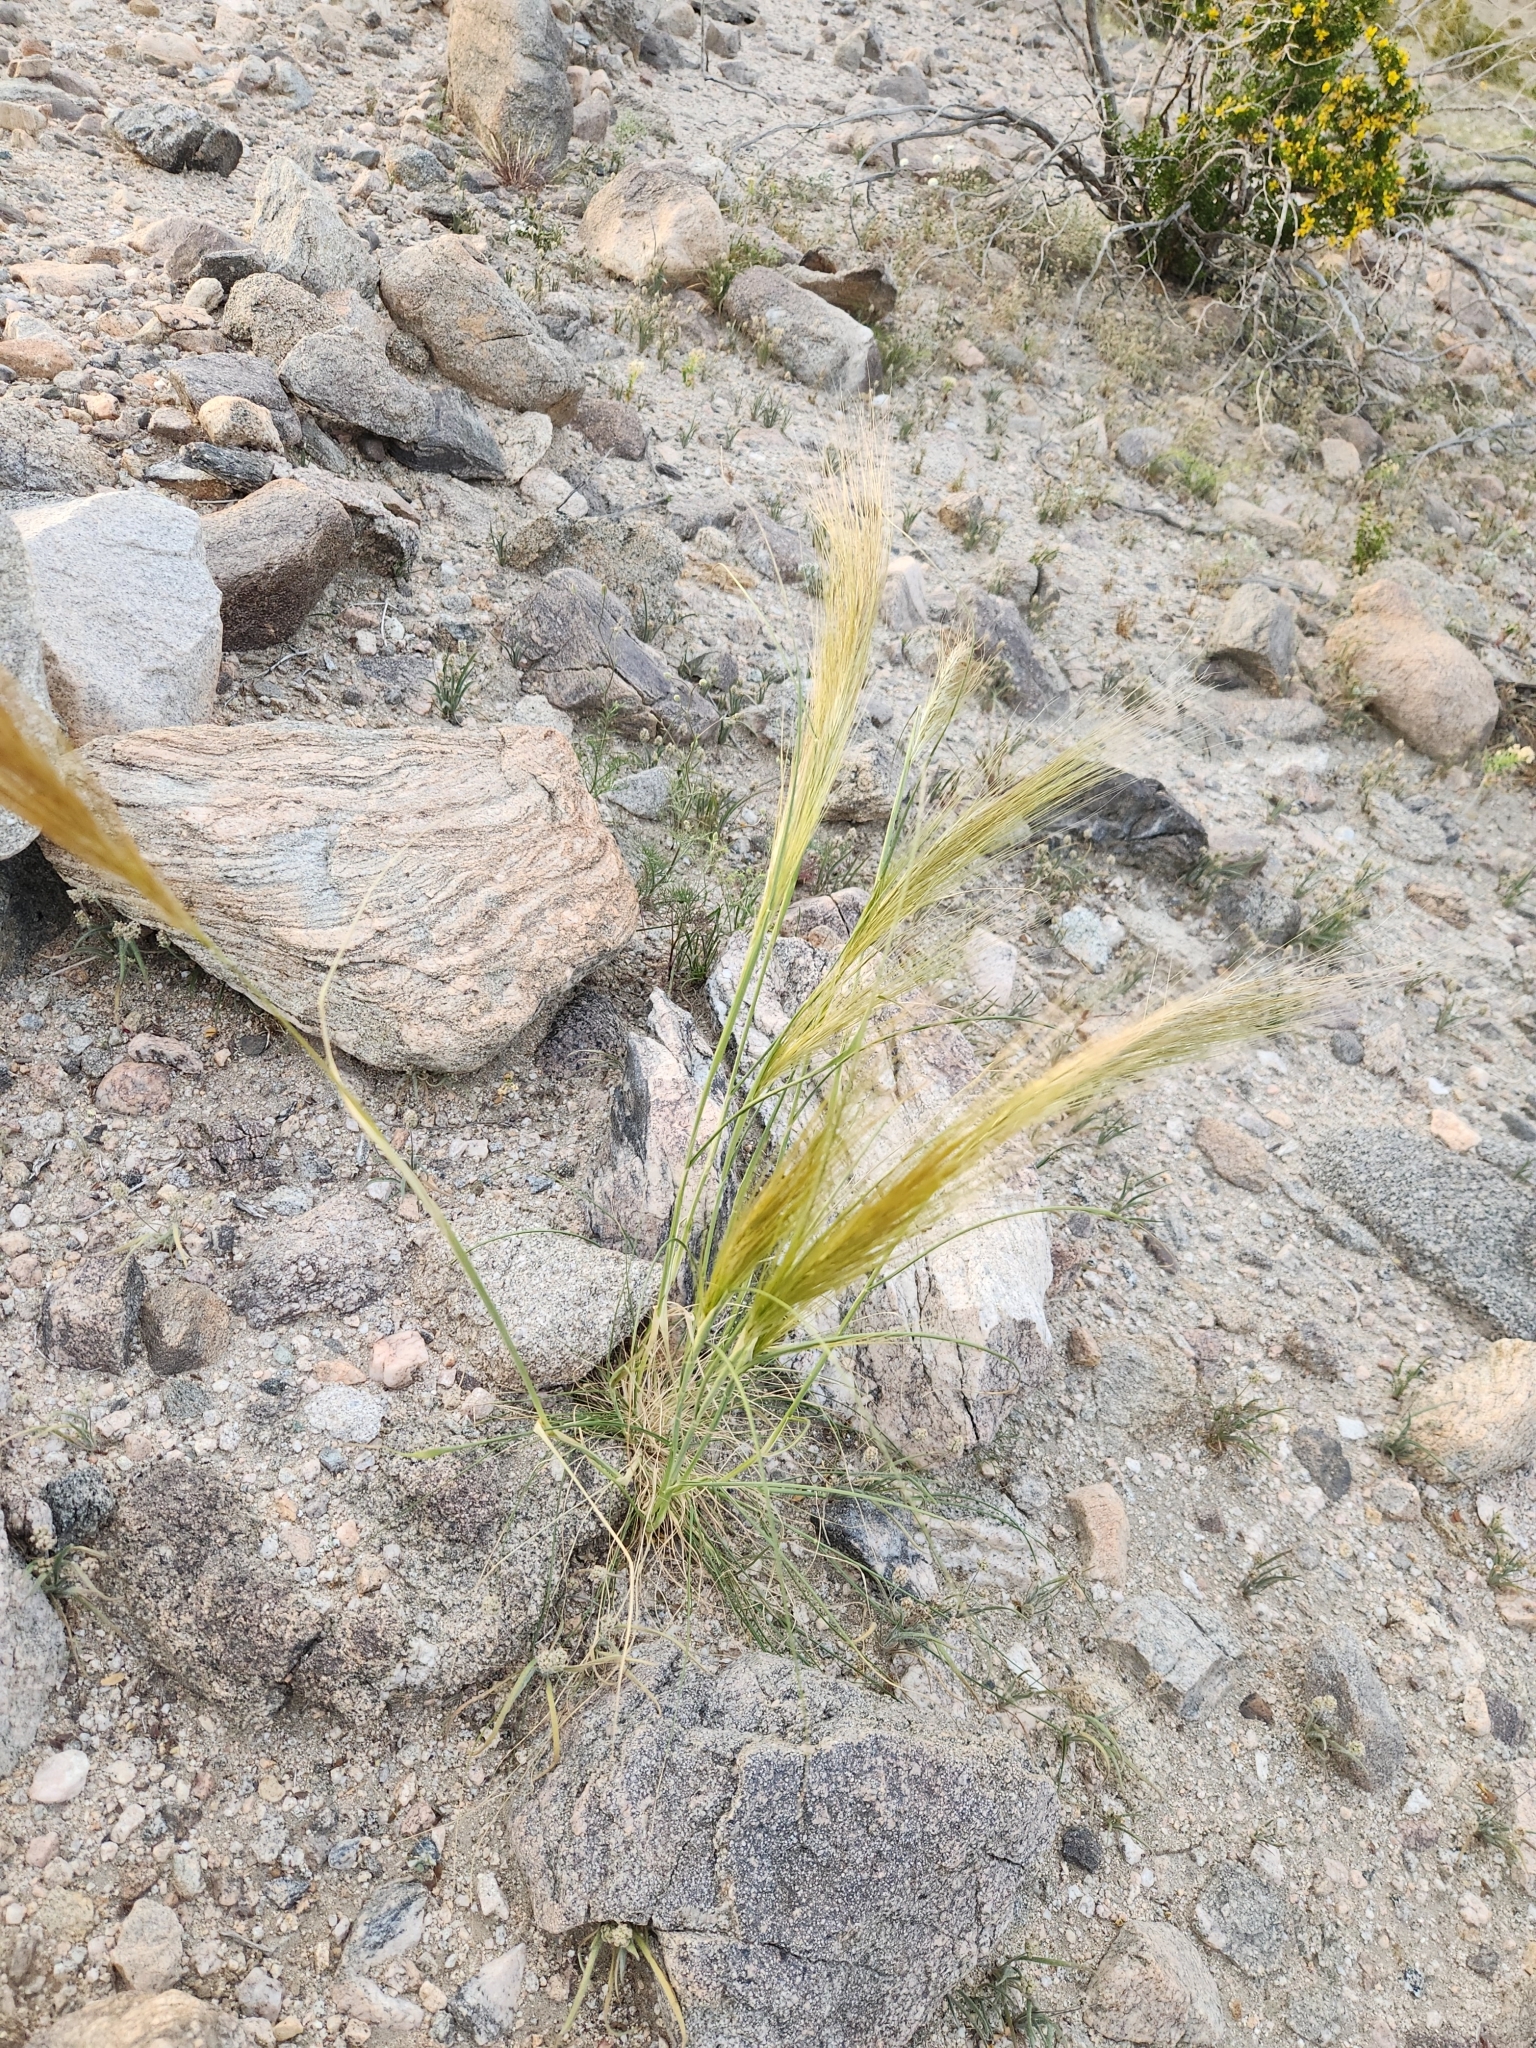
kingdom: Plantae
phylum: Tracheophyta
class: Liliopsida
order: Poales
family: Poaceae
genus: Stipellula
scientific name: Stipellula capensis
